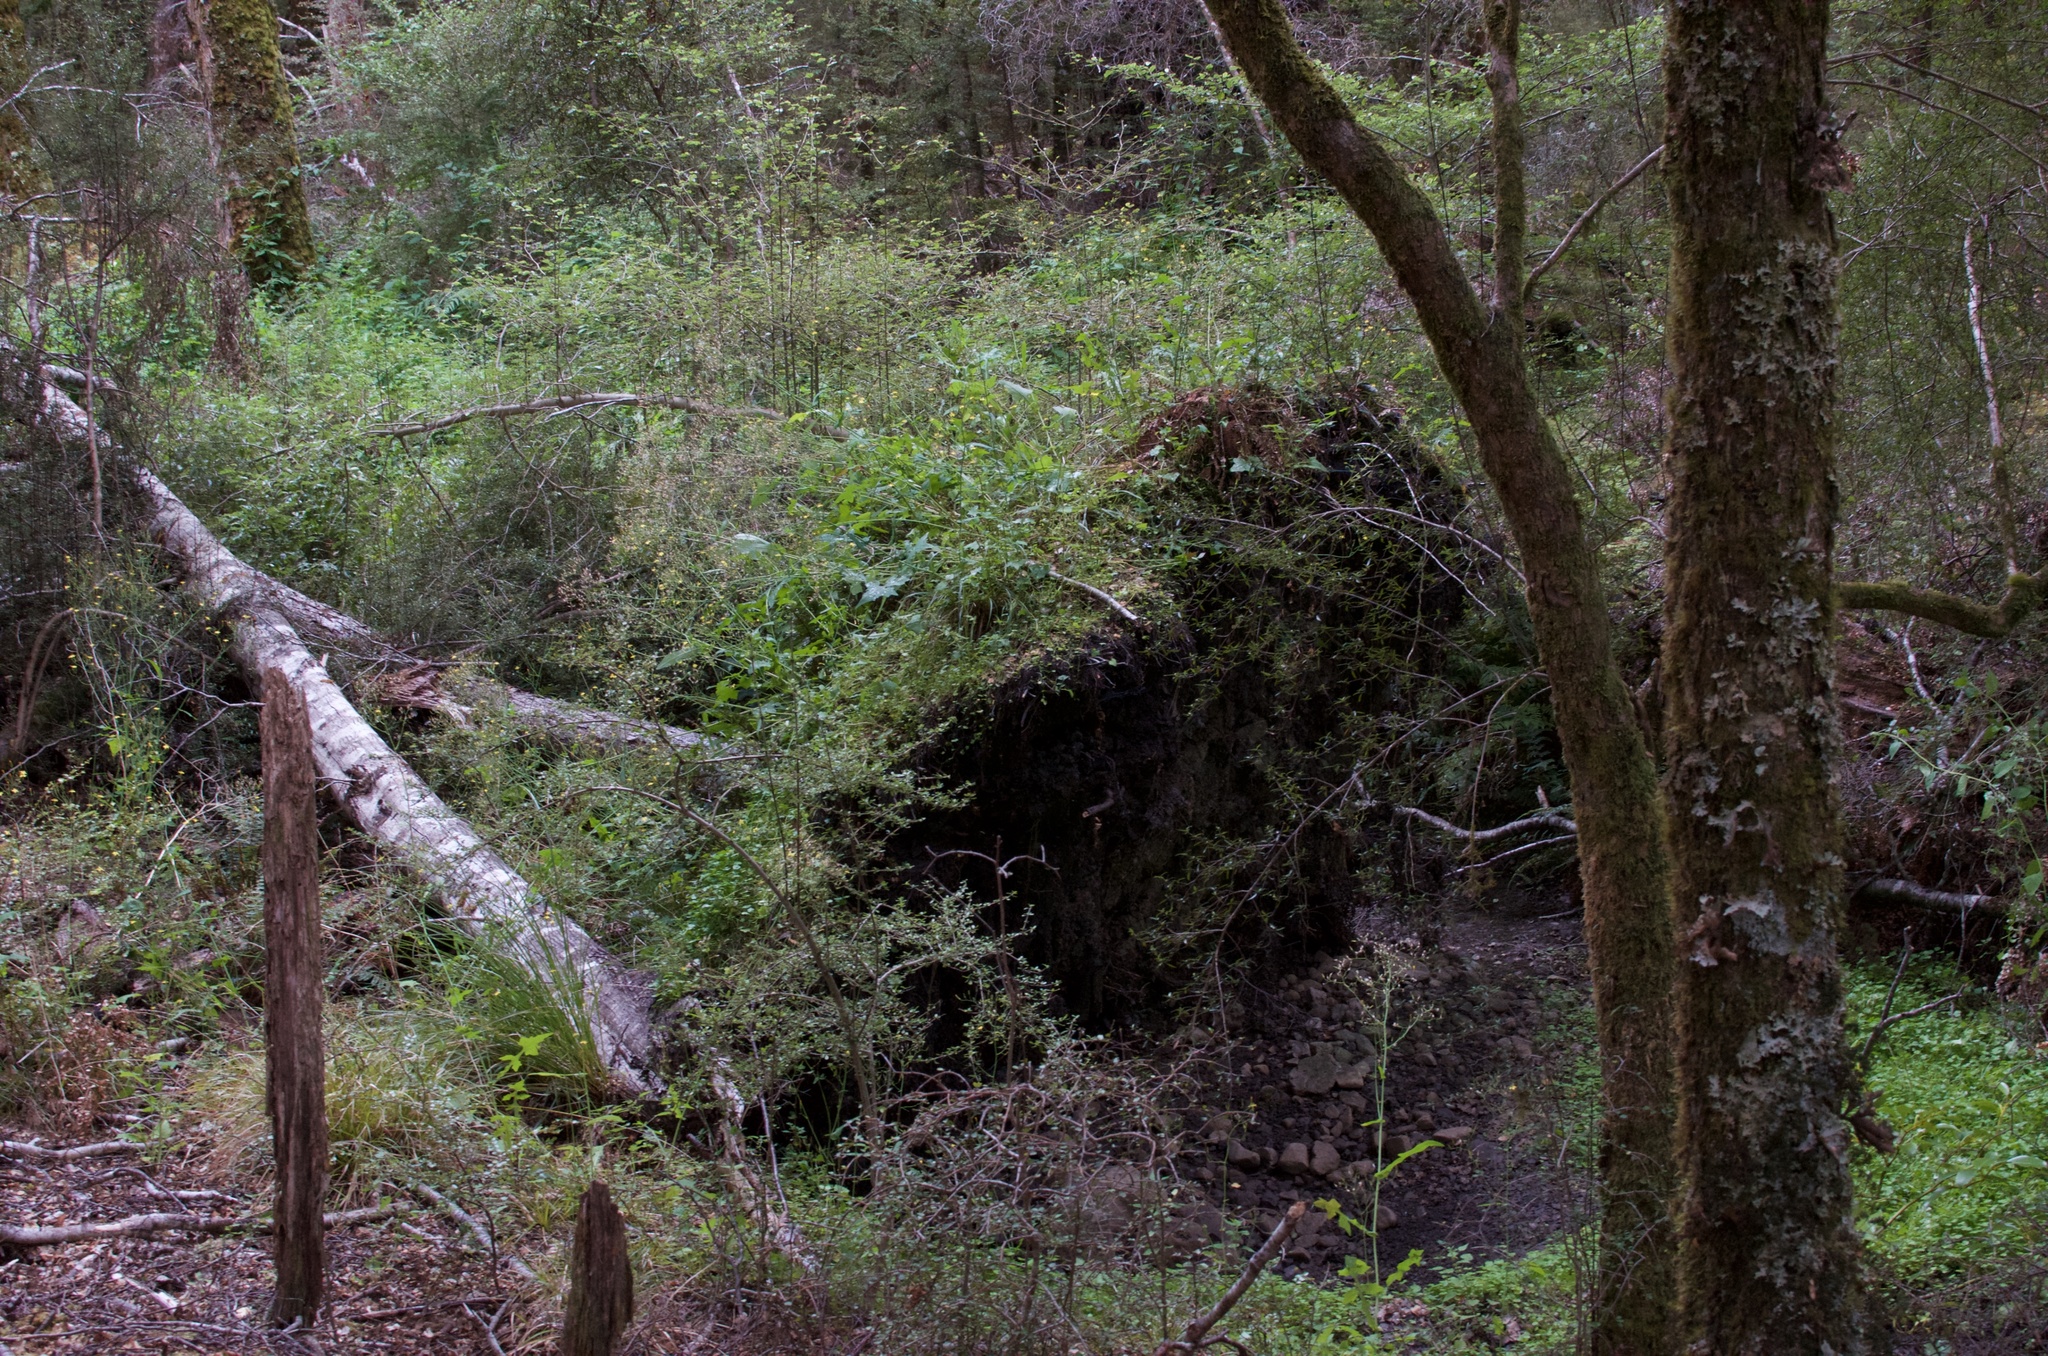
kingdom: Plantae
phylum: Tracheophyta
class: Magnoliopsida
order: Asterales
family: Asteraceae
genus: Mycelis
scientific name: Mycelis muralis
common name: Wall lettuce
